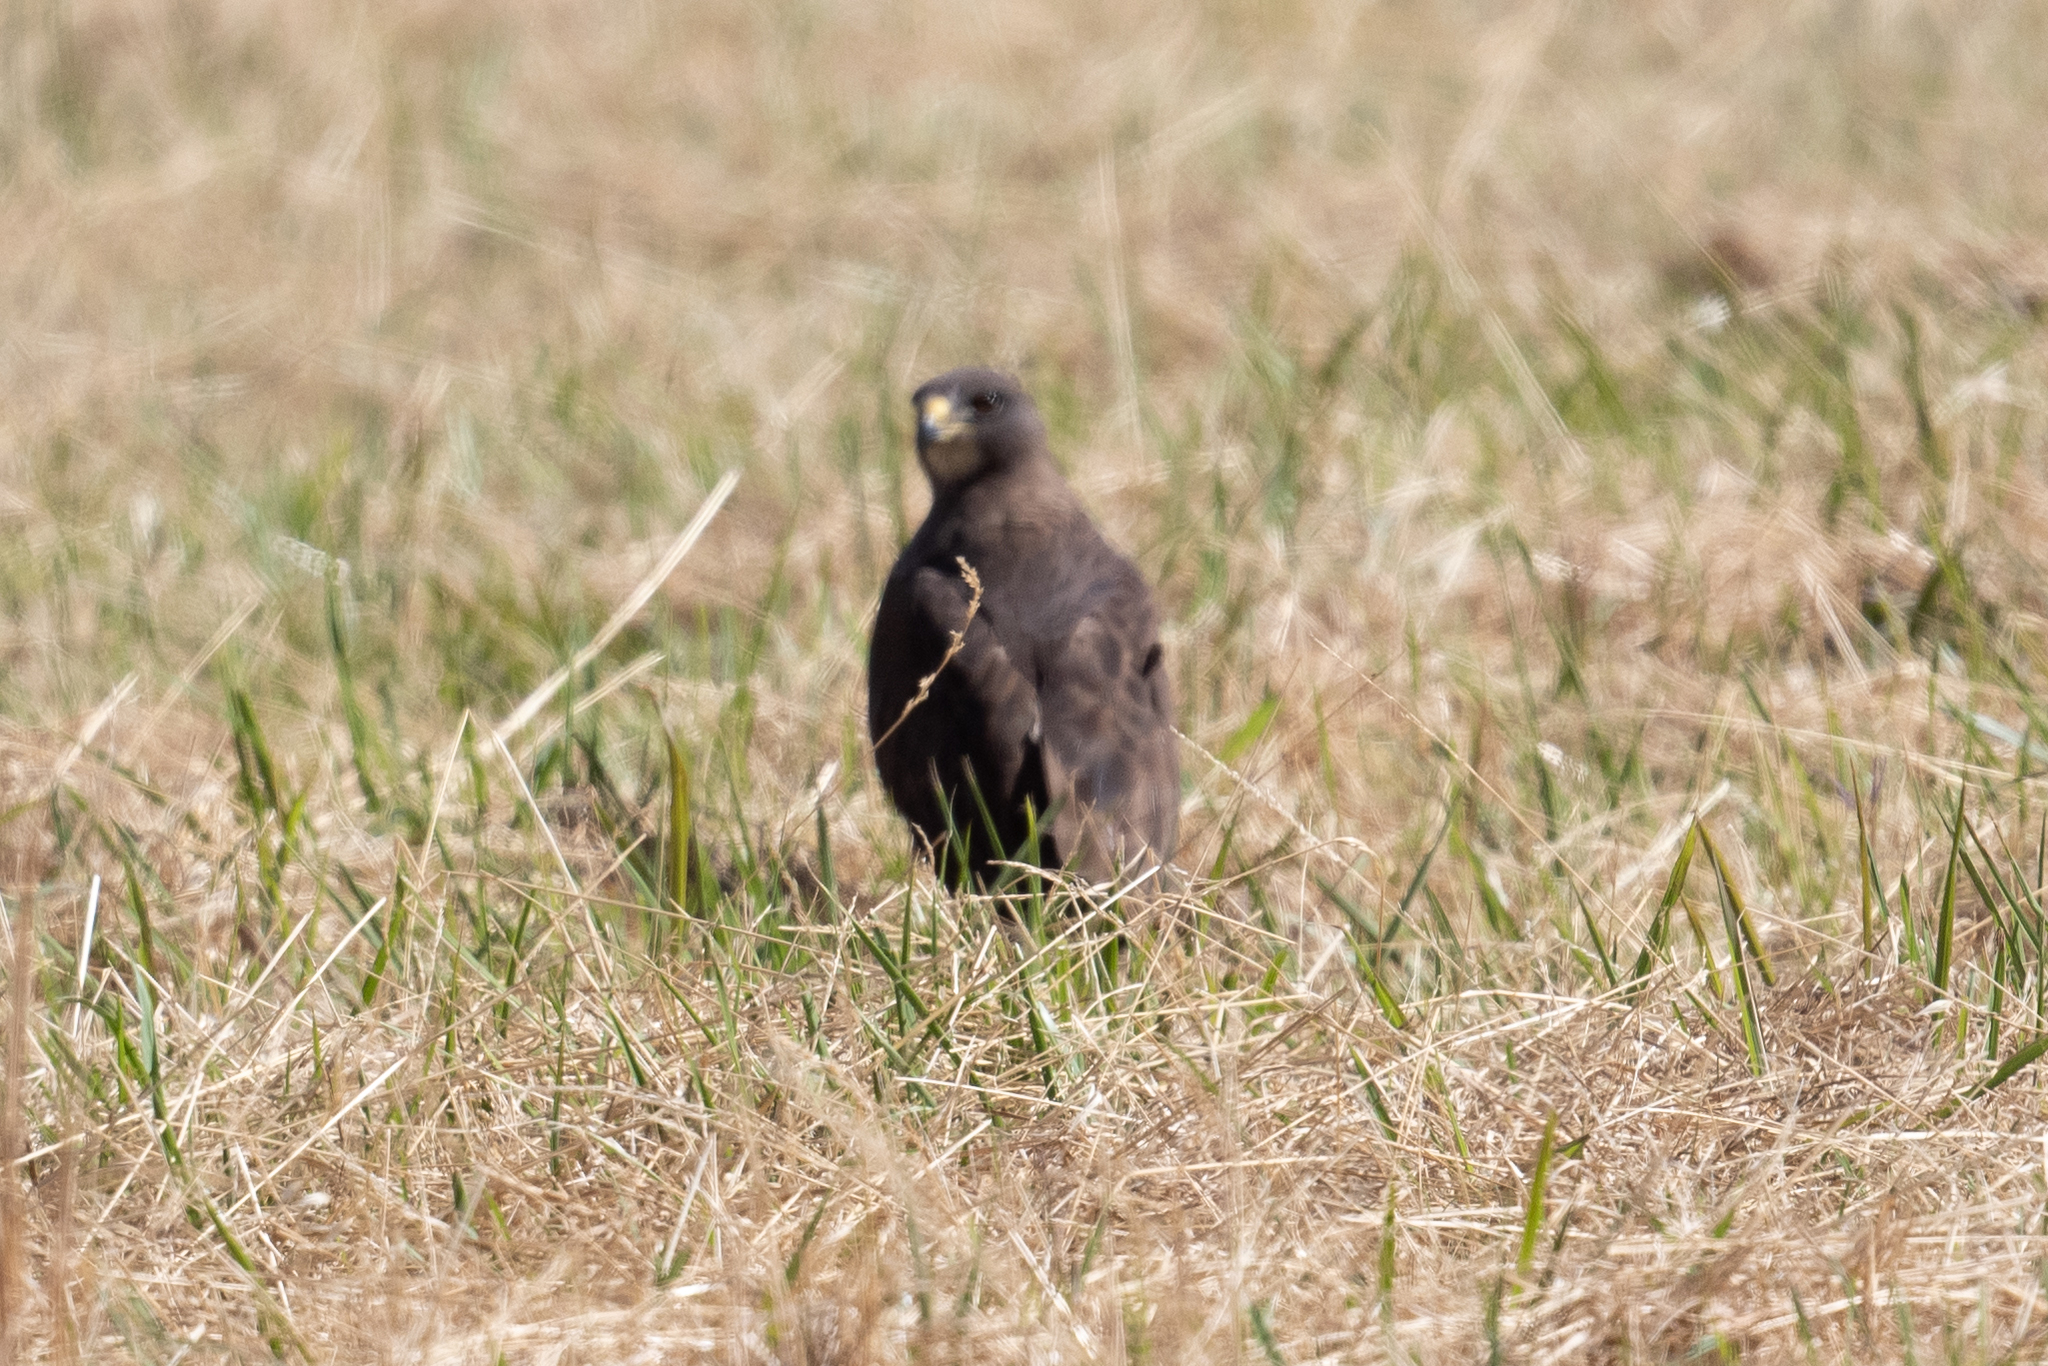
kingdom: Animalia
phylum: Chordata
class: Aves
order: Accipitriformes
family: Accipitridae
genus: Buteo
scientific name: Buteo swainsoni
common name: Swainson's hawk
